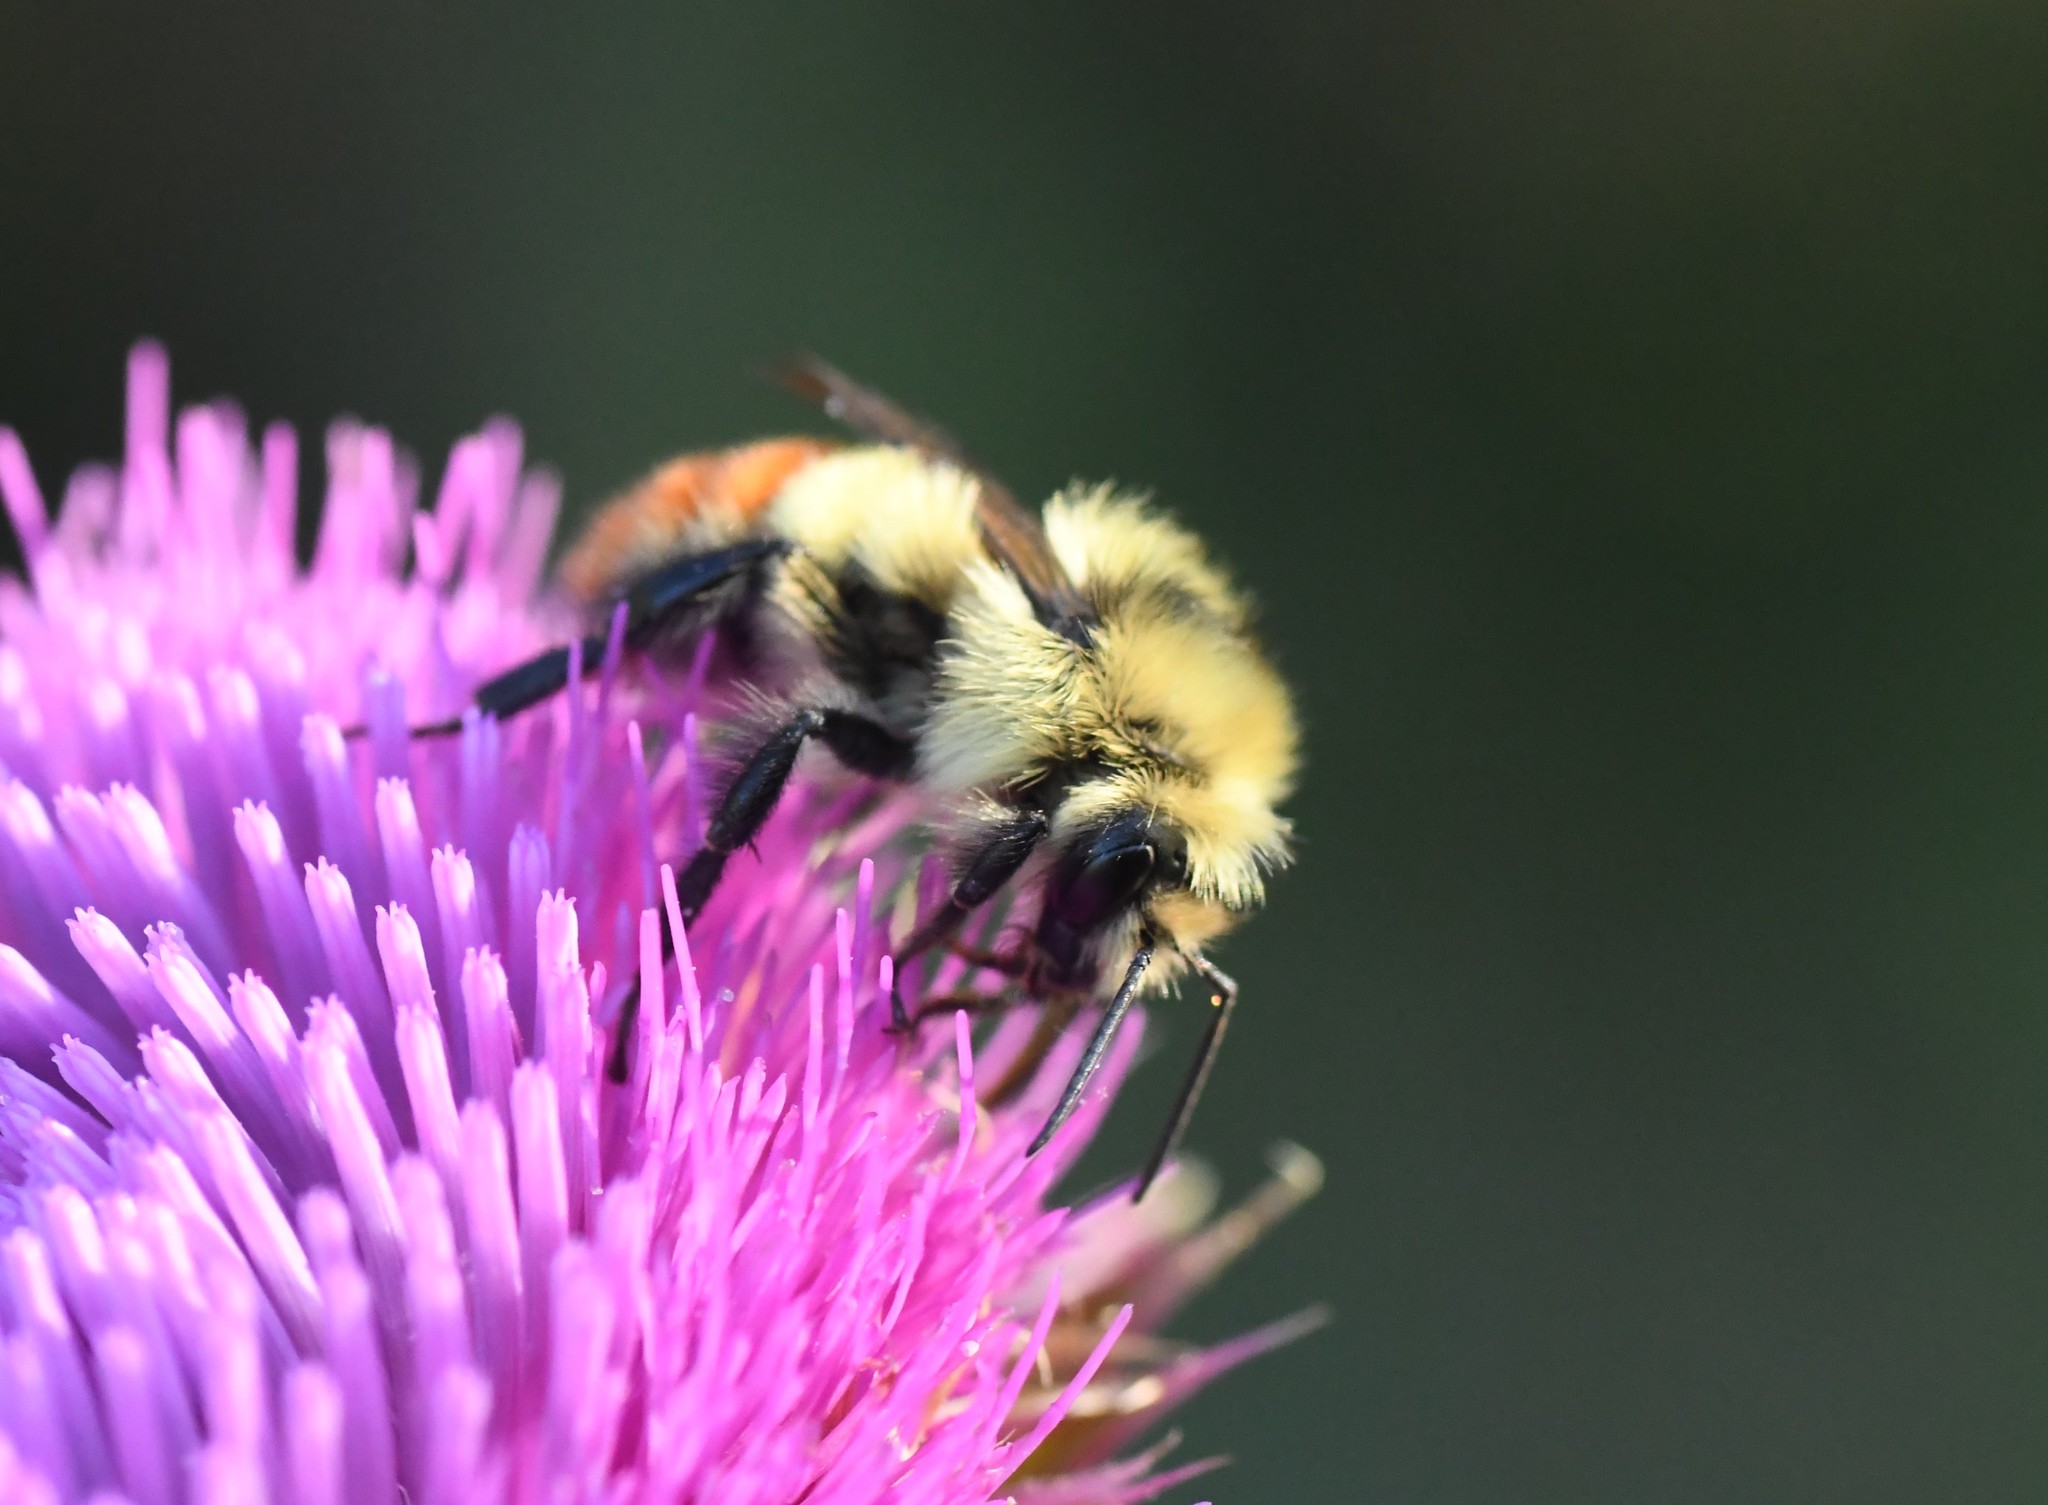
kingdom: Animalia
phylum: Arthropoda
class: Insecta
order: Hymenoptera
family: Apidae
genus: Bombus
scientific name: Bombus centralis
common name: Central bumble bee
